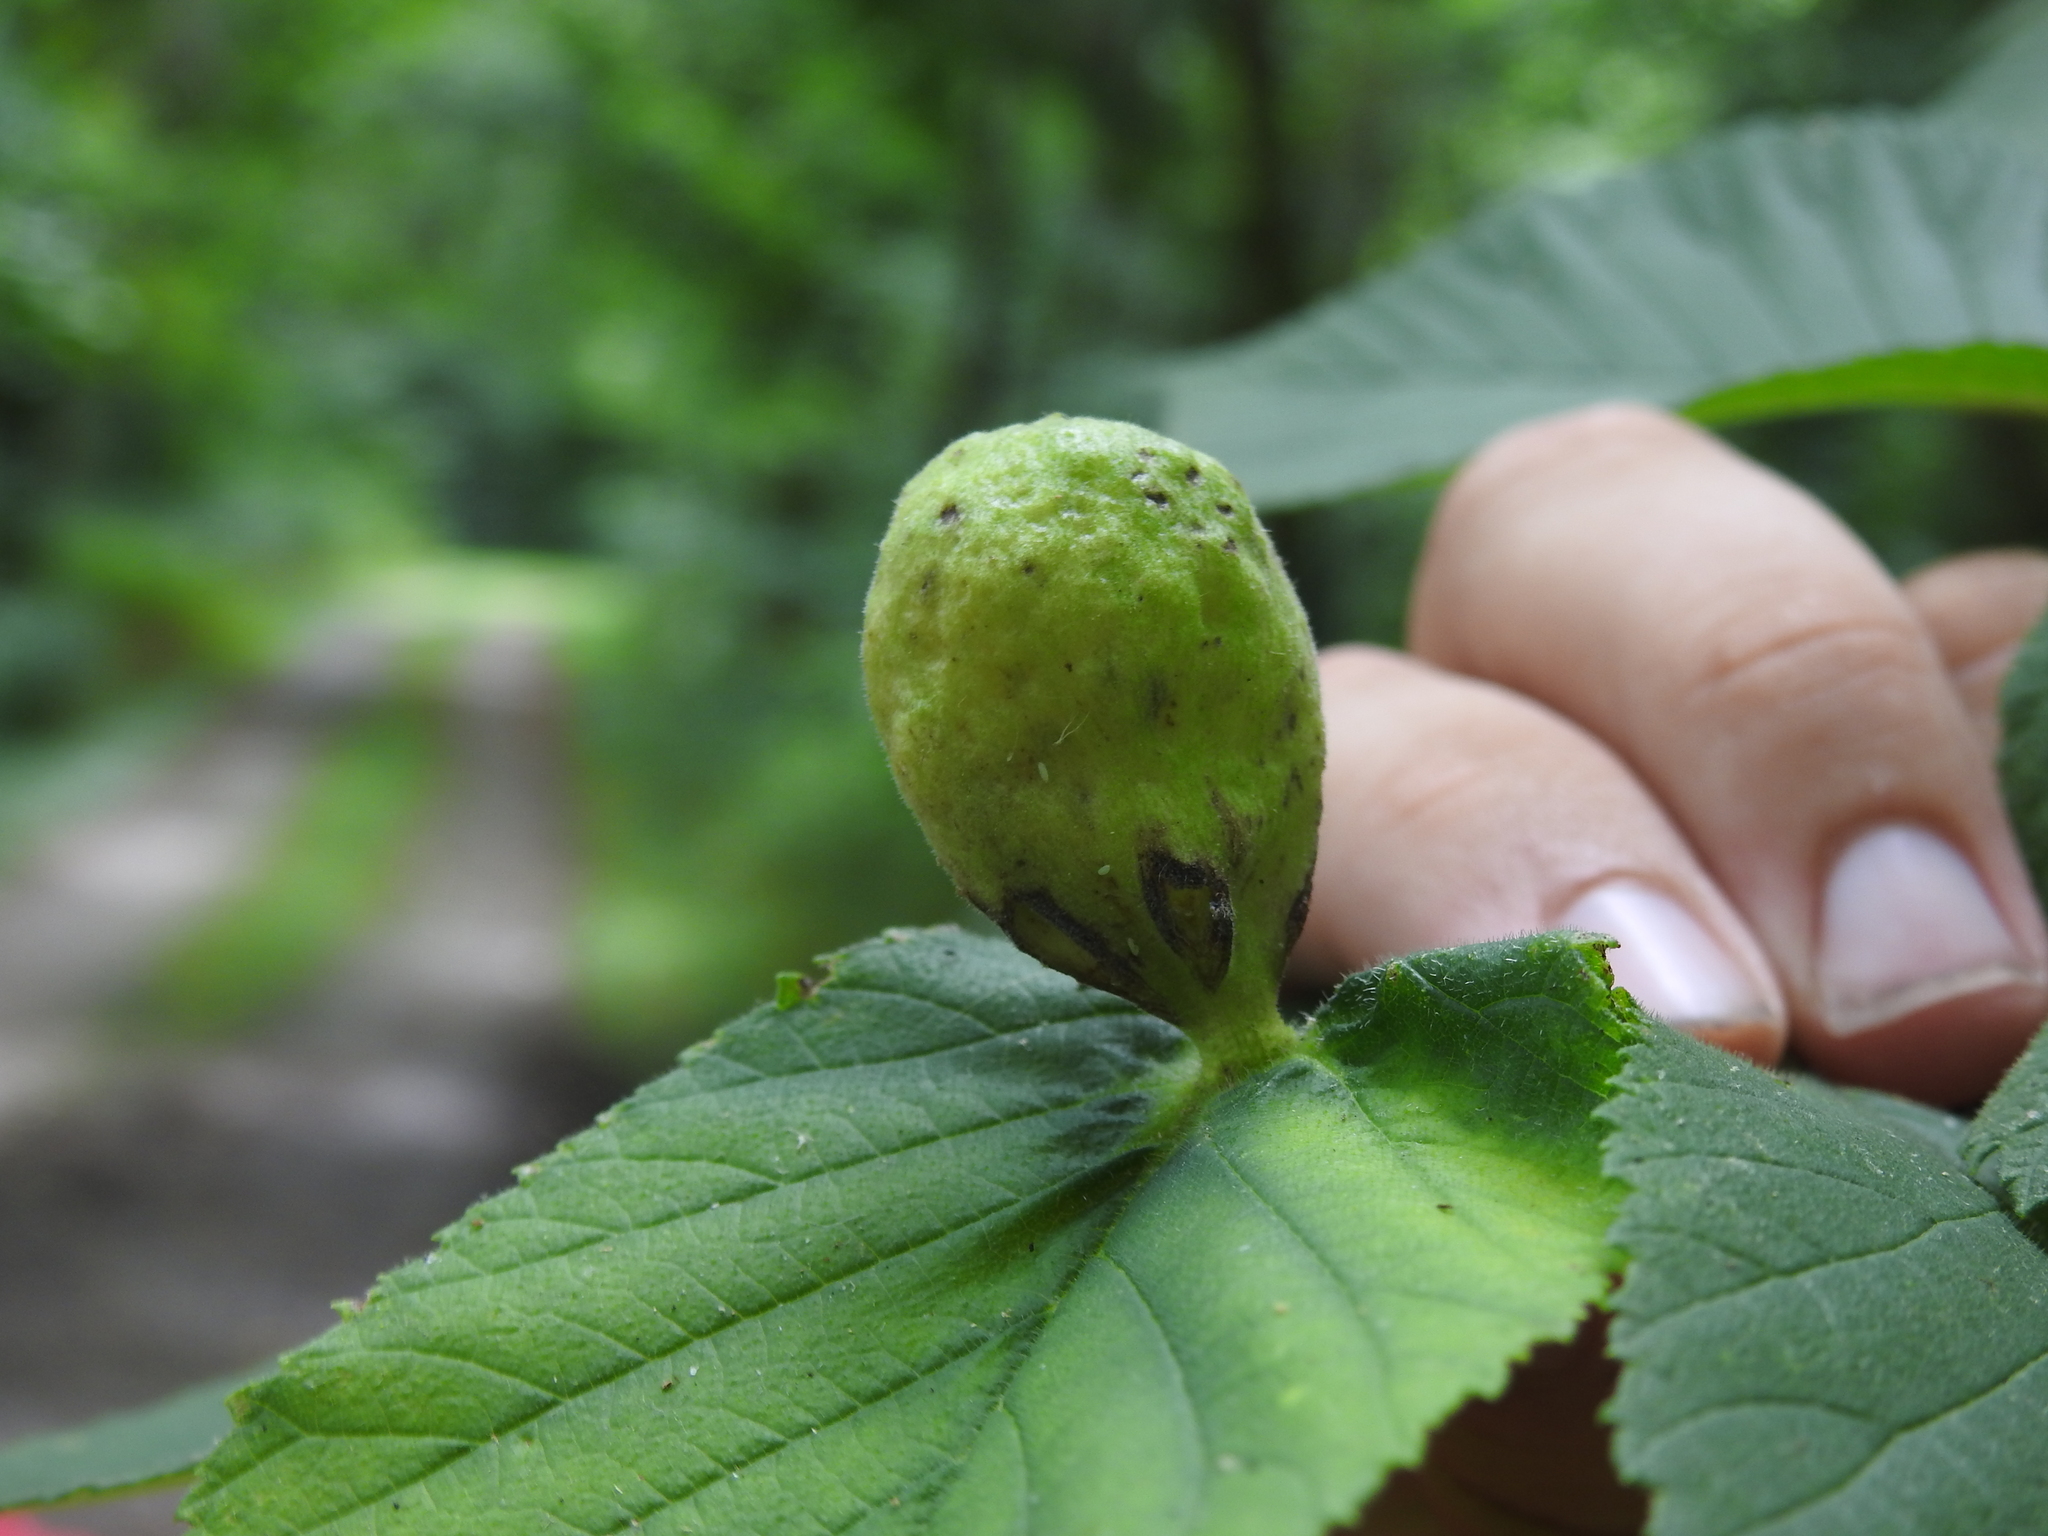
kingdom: Animalia
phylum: Arthropoda
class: Insecta
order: Hemiptera
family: Aphididae
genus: Kaltenbachiella
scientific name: Kaltenbachiella ulmifusa
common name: Elm pouchgall aphid
